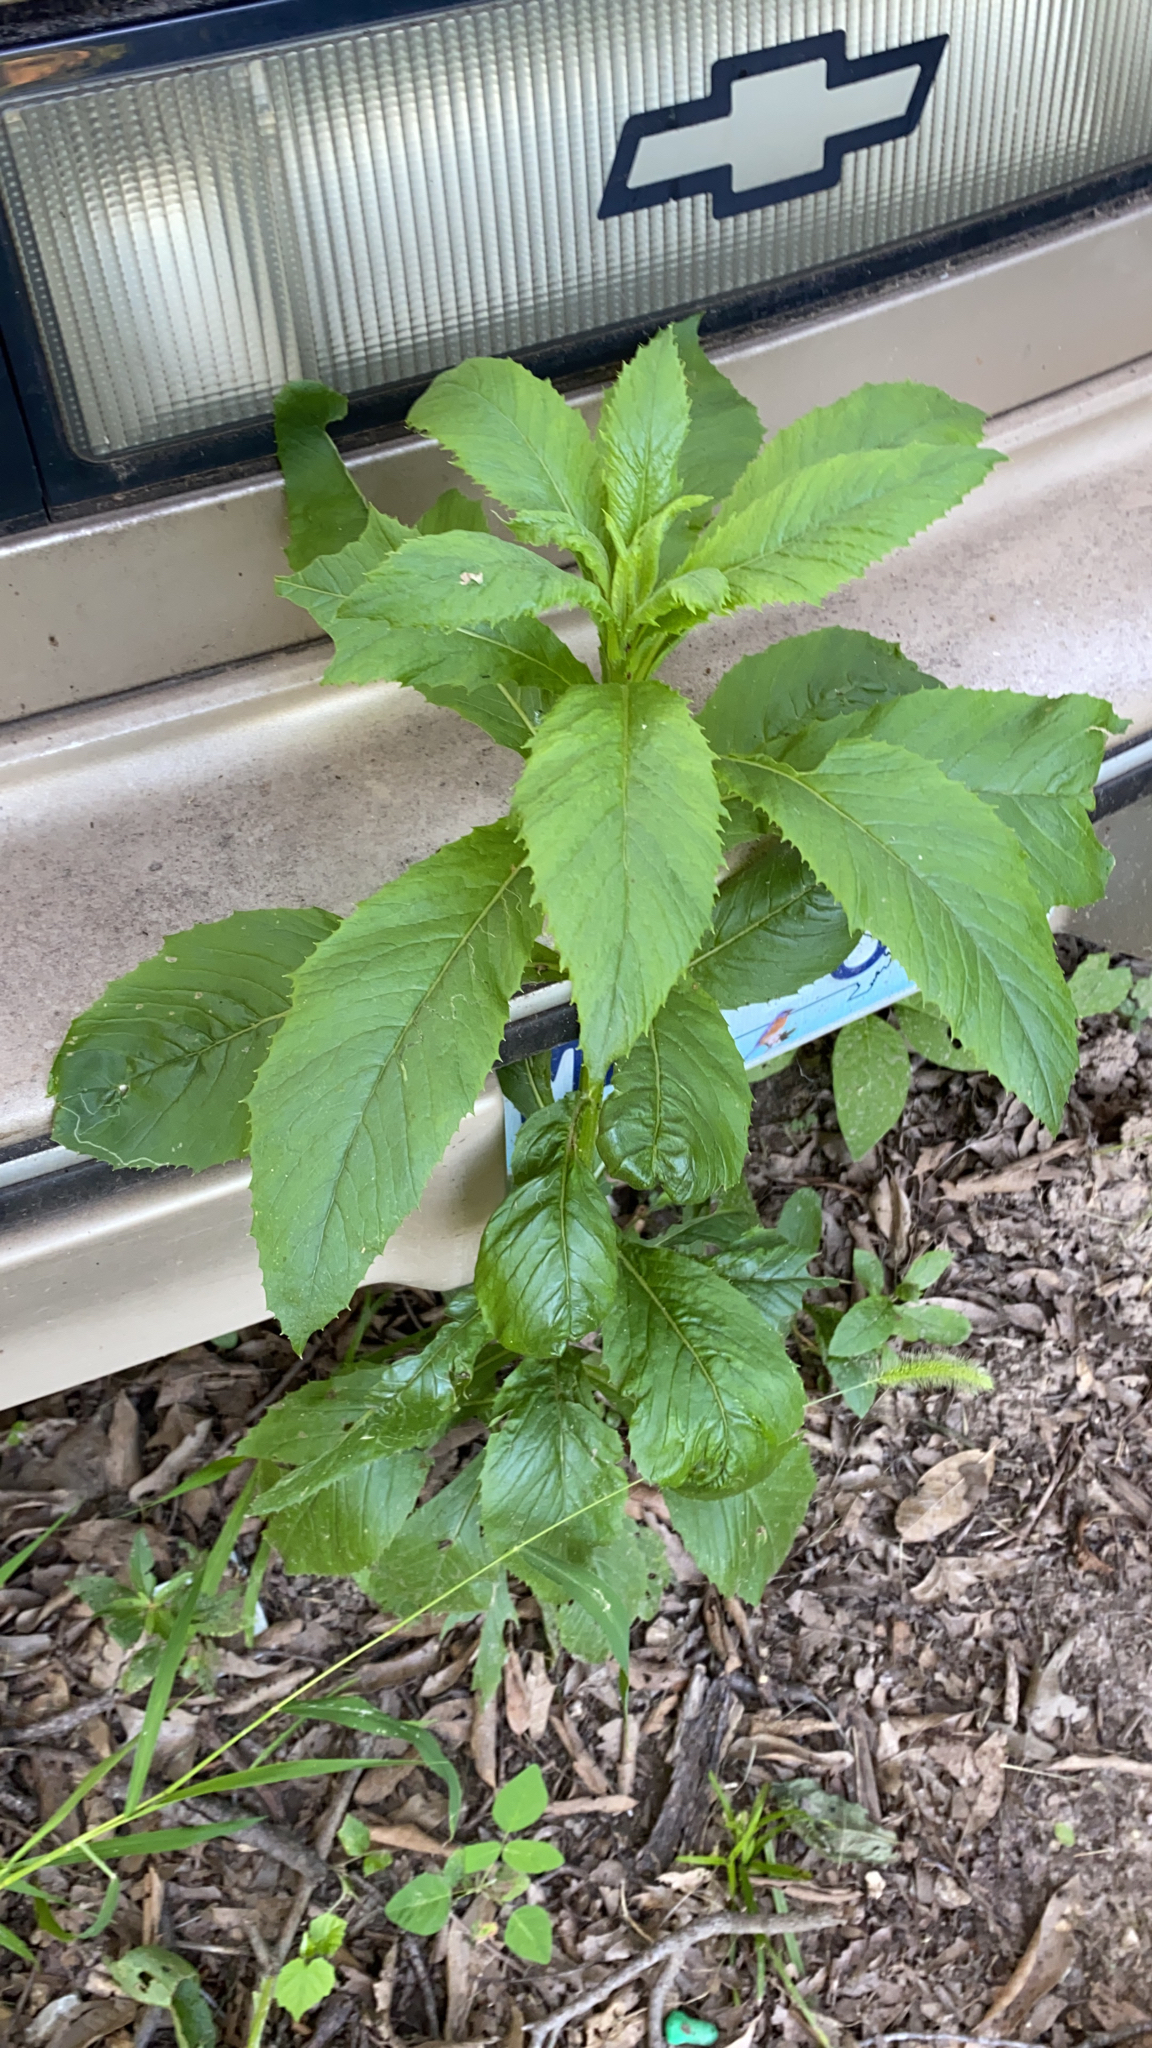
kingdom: Plantae
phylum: Tracheophyta
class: Magnoliopsida
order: Asterales
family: Asteraceae
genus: Erechtites
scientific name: Erechtites hieraciifolius
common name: American burnweed
